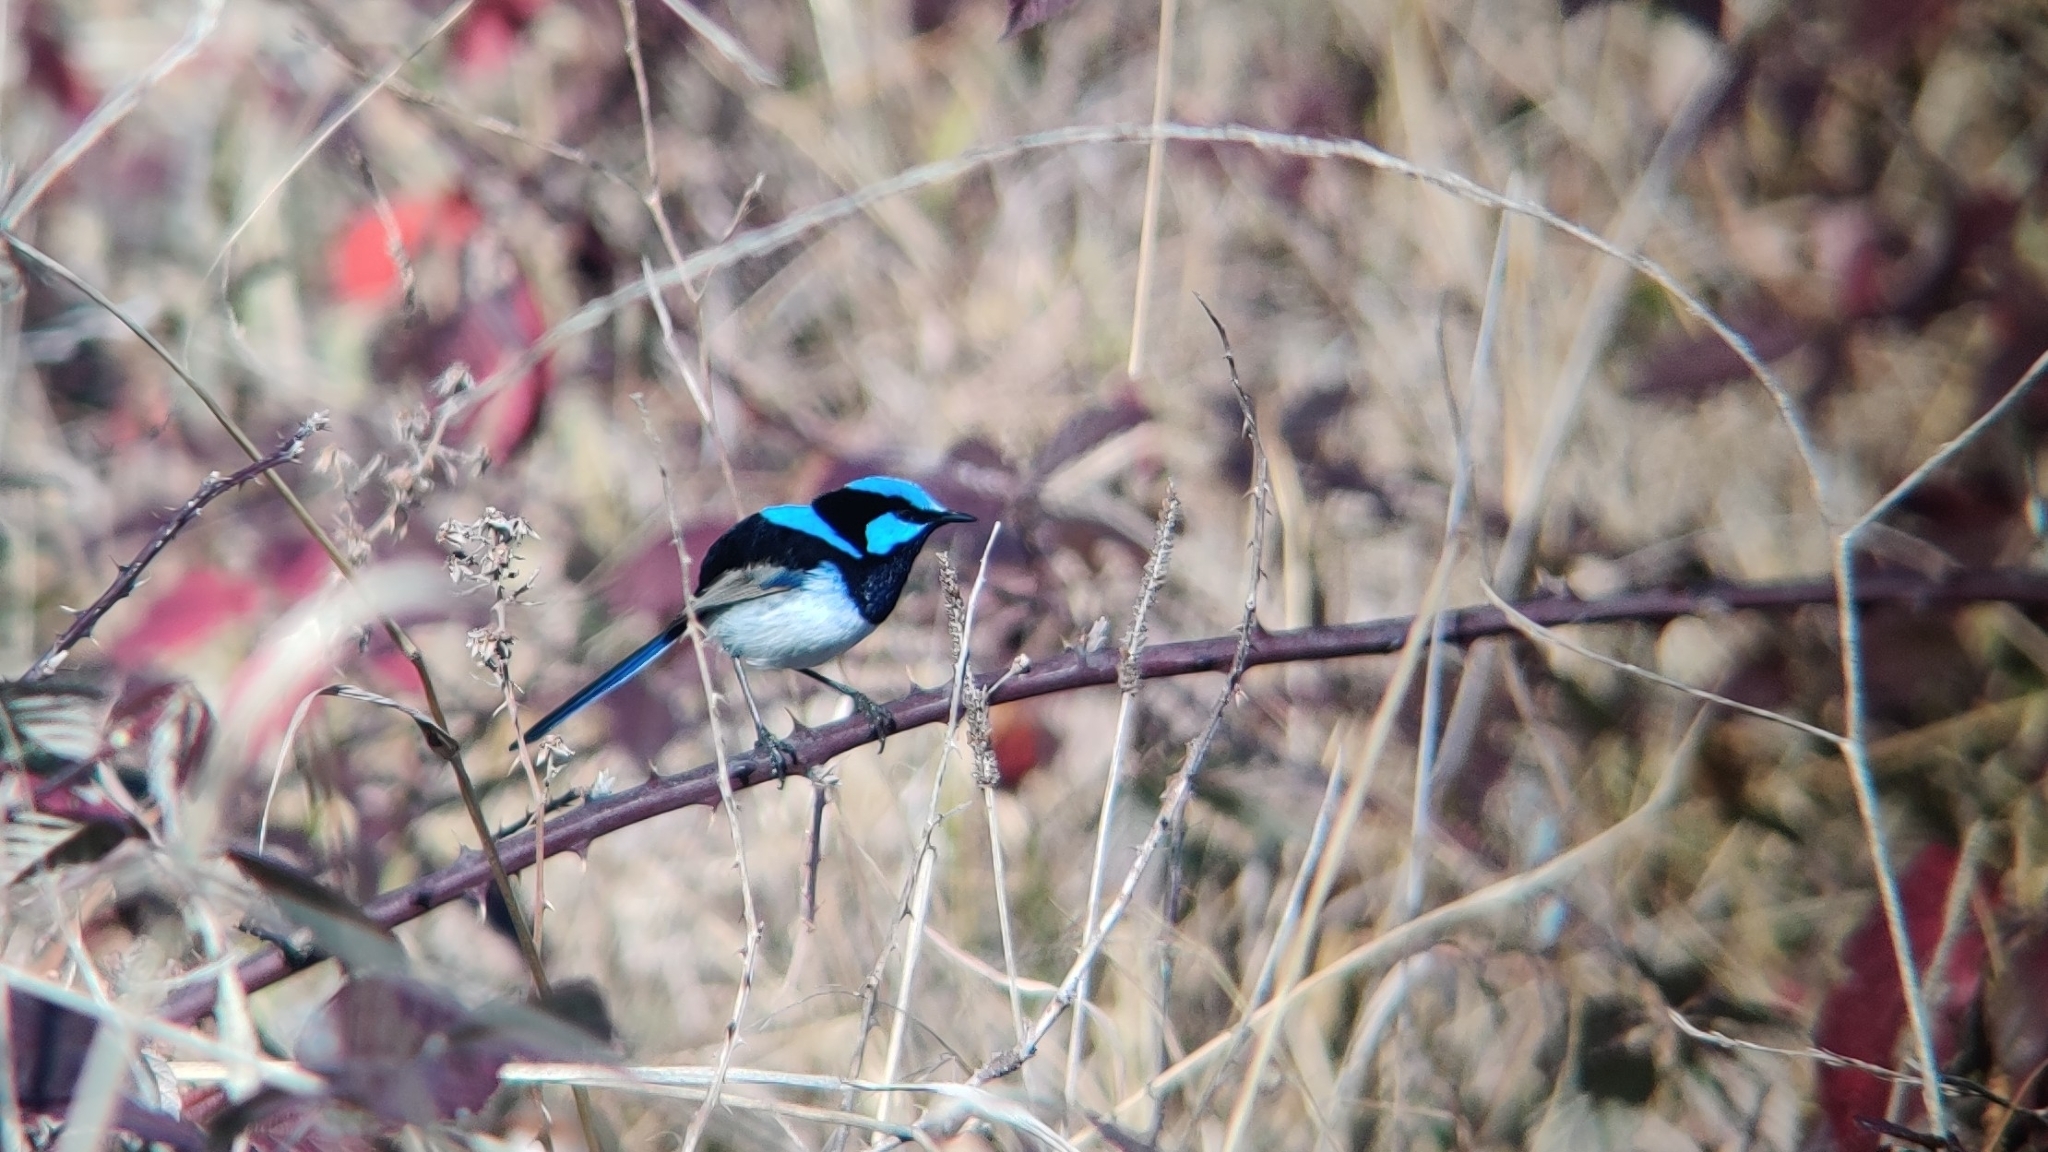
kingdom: Animalia
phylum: Chordata
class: Aves
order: Passeriformes
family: Maluridae
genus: Malurus
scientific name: Malurus cyaneus
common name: Superb fairywren
